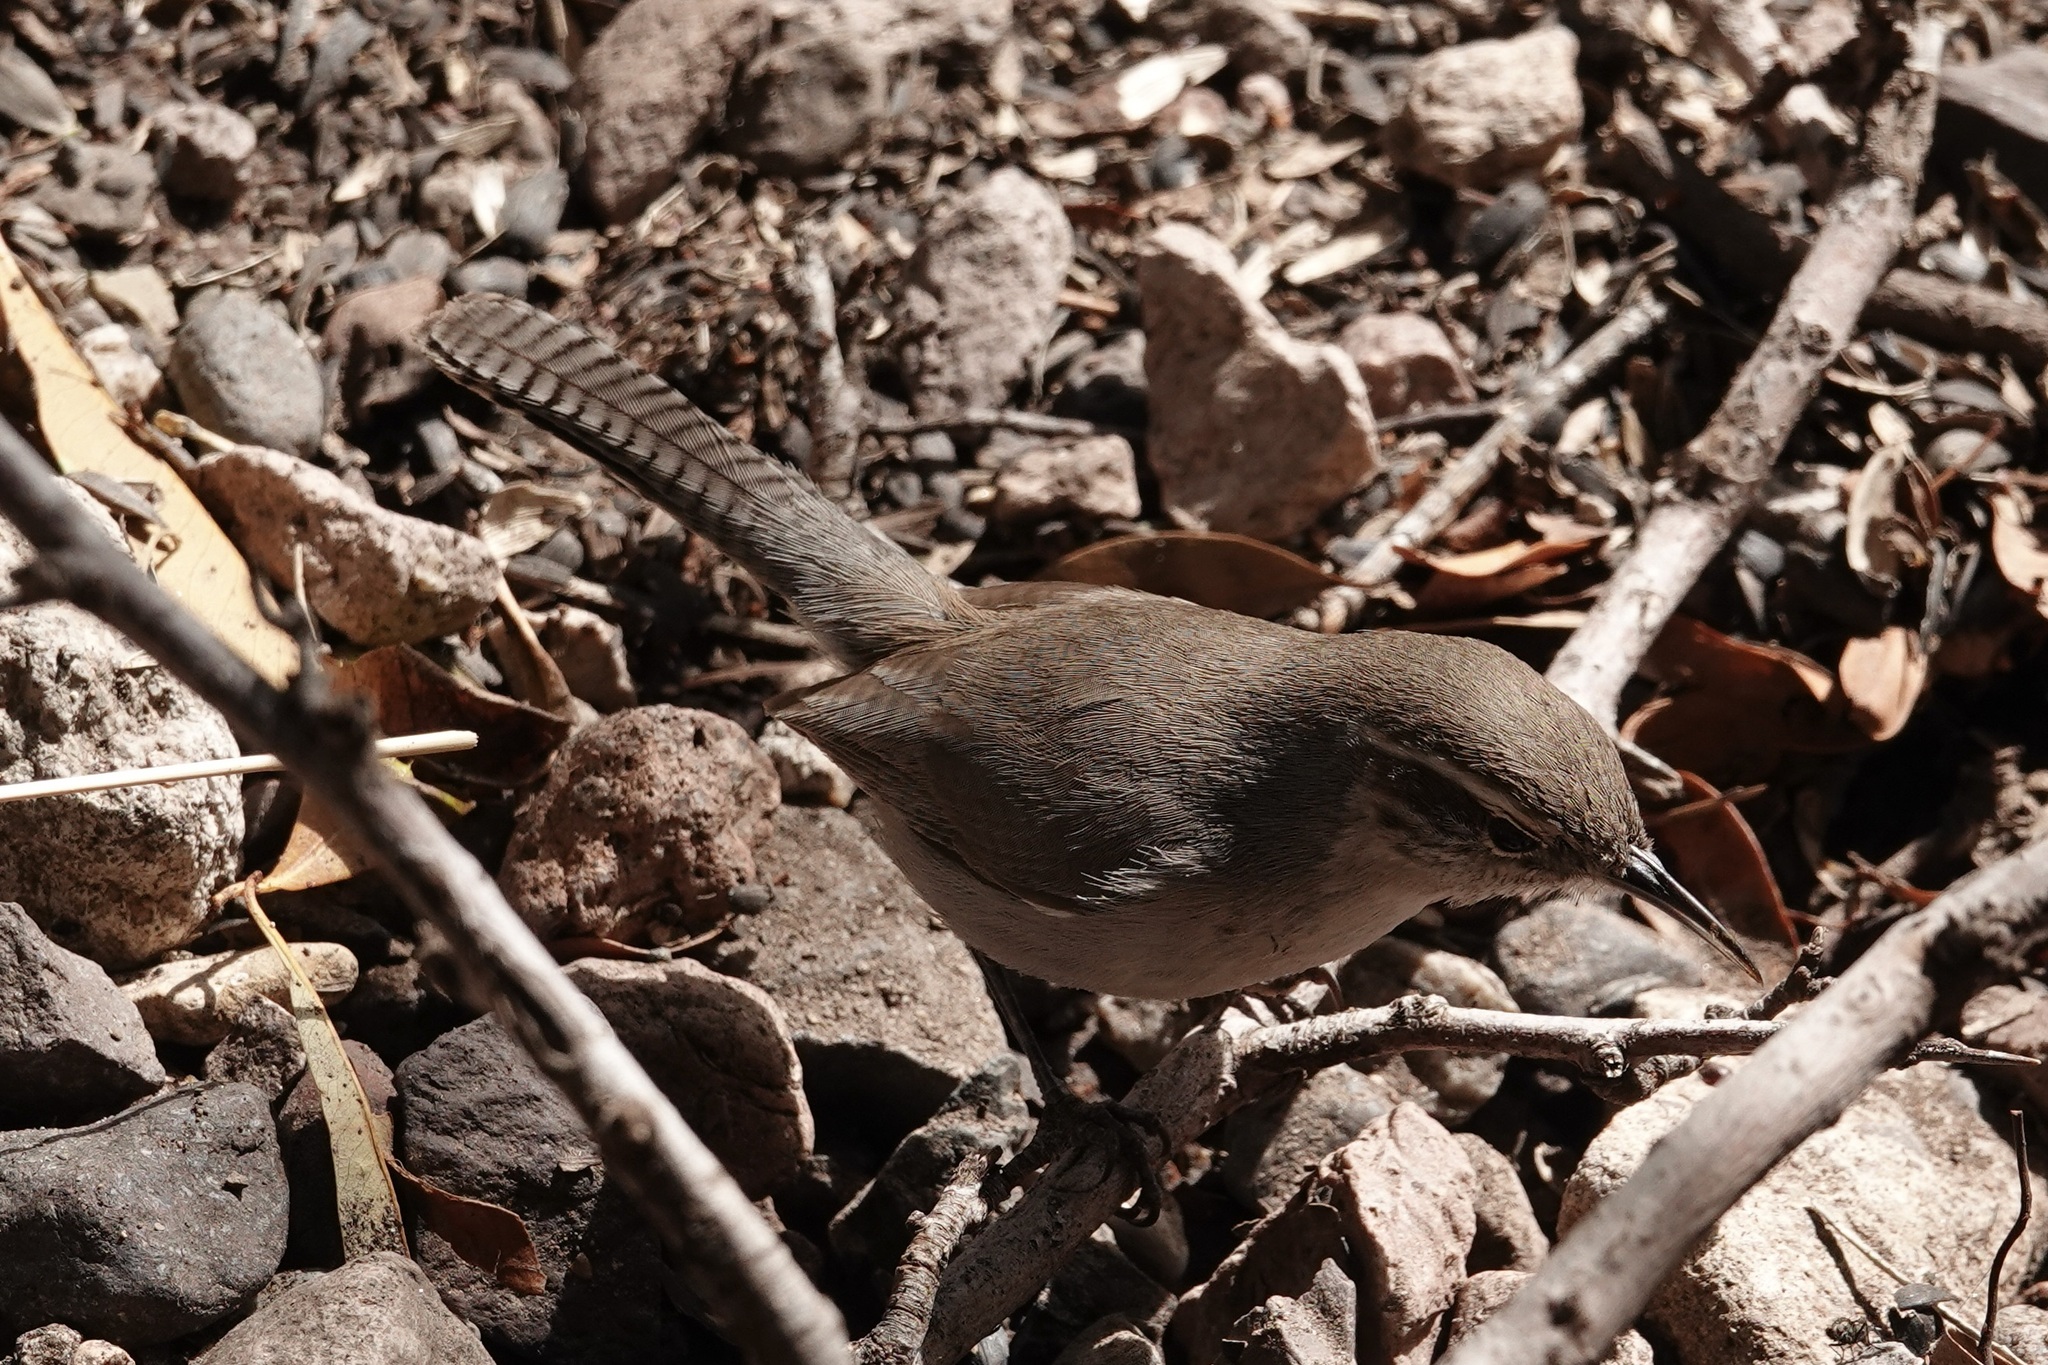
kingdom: Animalia
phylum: Chordata
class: Aves
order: Passeriformes
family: Troglodytidae
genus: Thryomanes
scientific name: Thryomanes bewickii
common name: Bewick's wren
